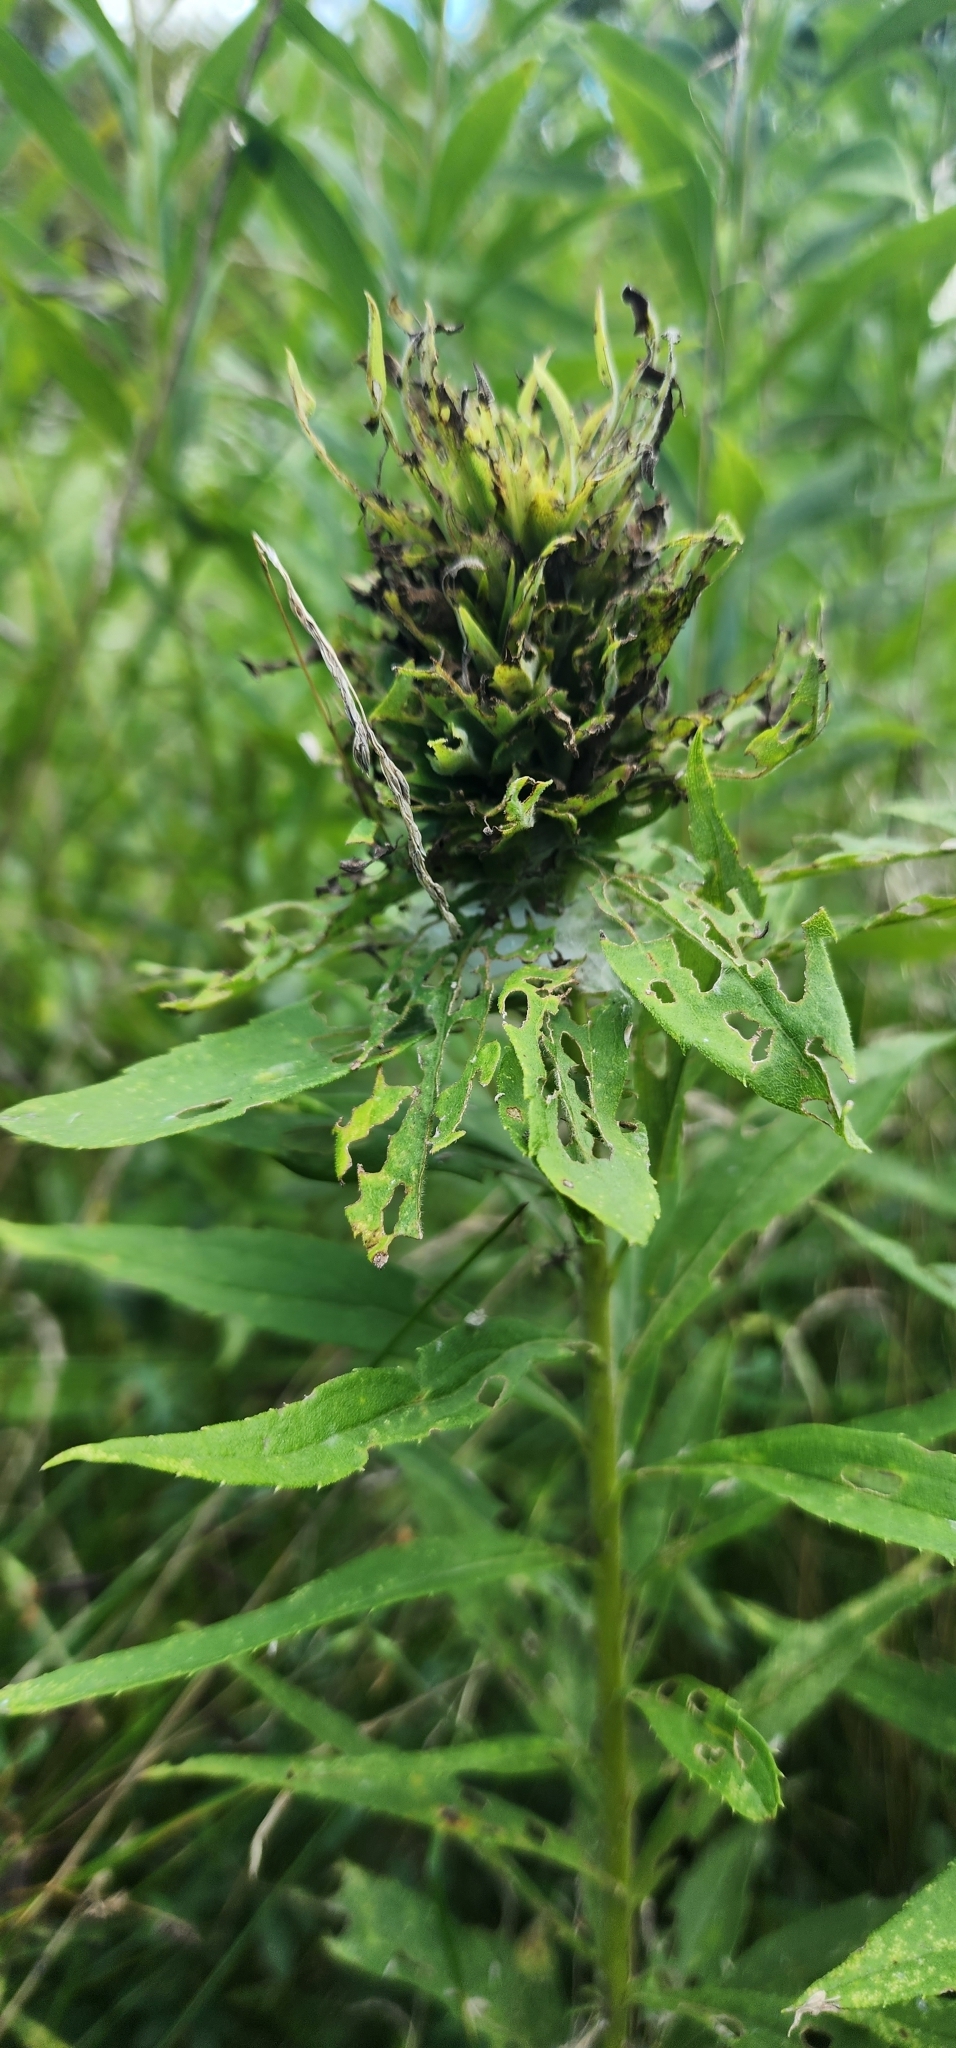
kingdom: Animalia
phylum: Arthropoda
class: Insecta
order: Diptera
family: Cecidomyiidae
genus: Rhopalomyia
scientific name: Rhopalomyia solidaginis
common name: Goldenrod bunch gall midge
